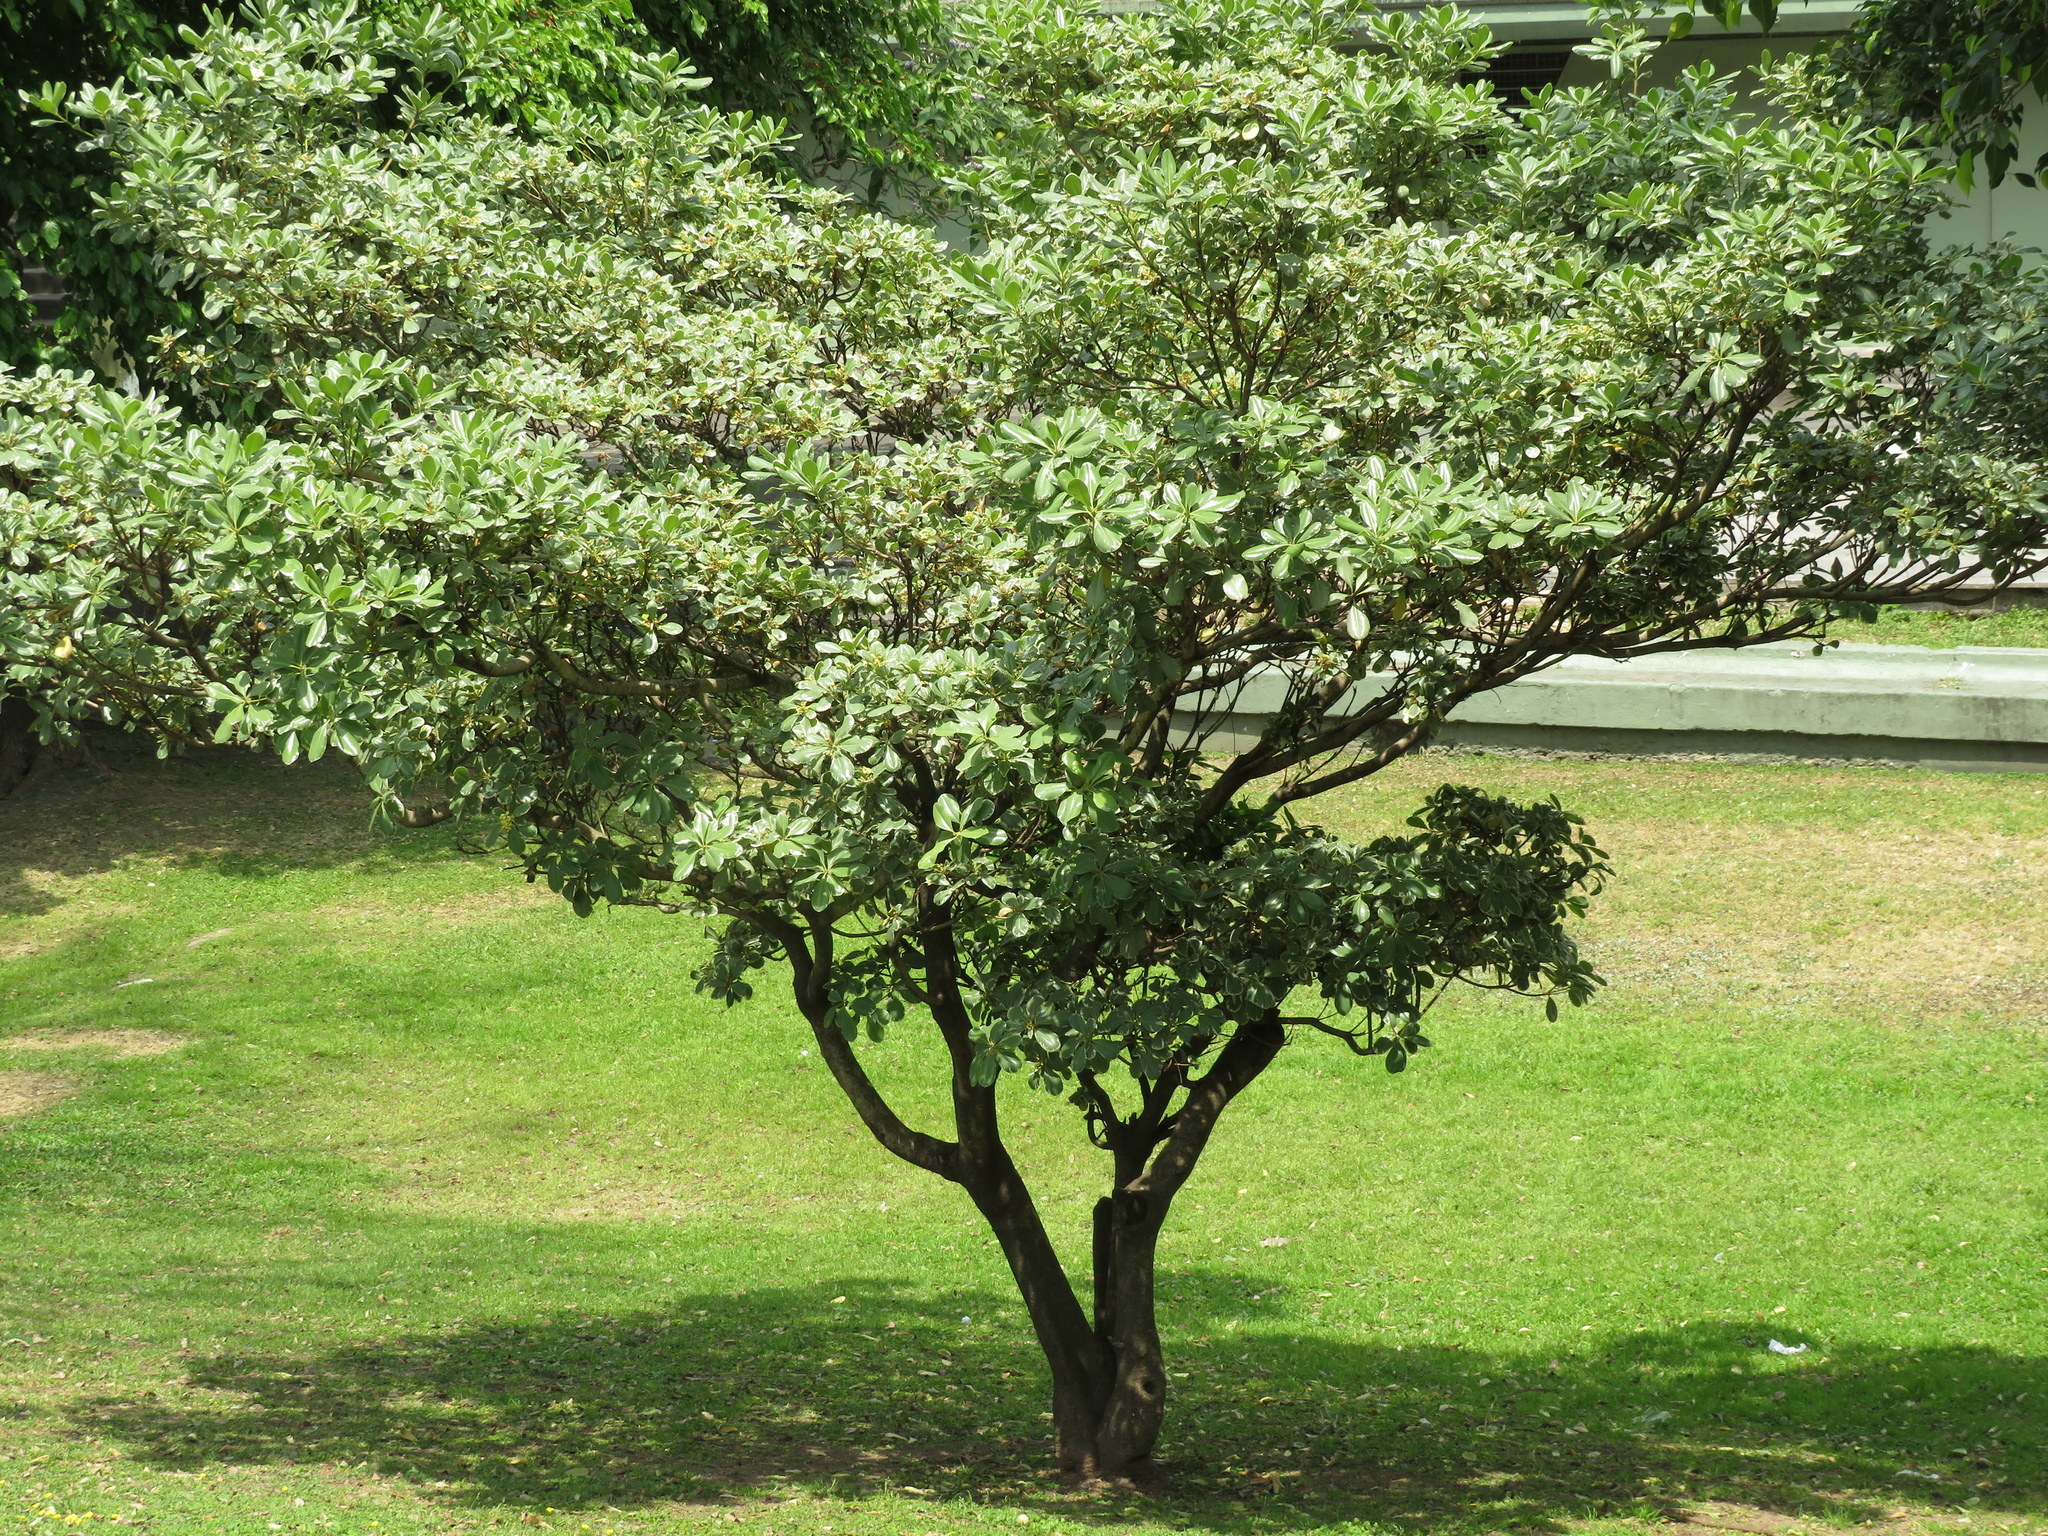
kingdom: Plantae
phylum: Tracheophyta
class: Magnoliopsida
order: Apiales
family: Pittosporaceae
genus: Pittosporum
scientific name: Pittosporum tobira
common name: Japanese cheesewood
